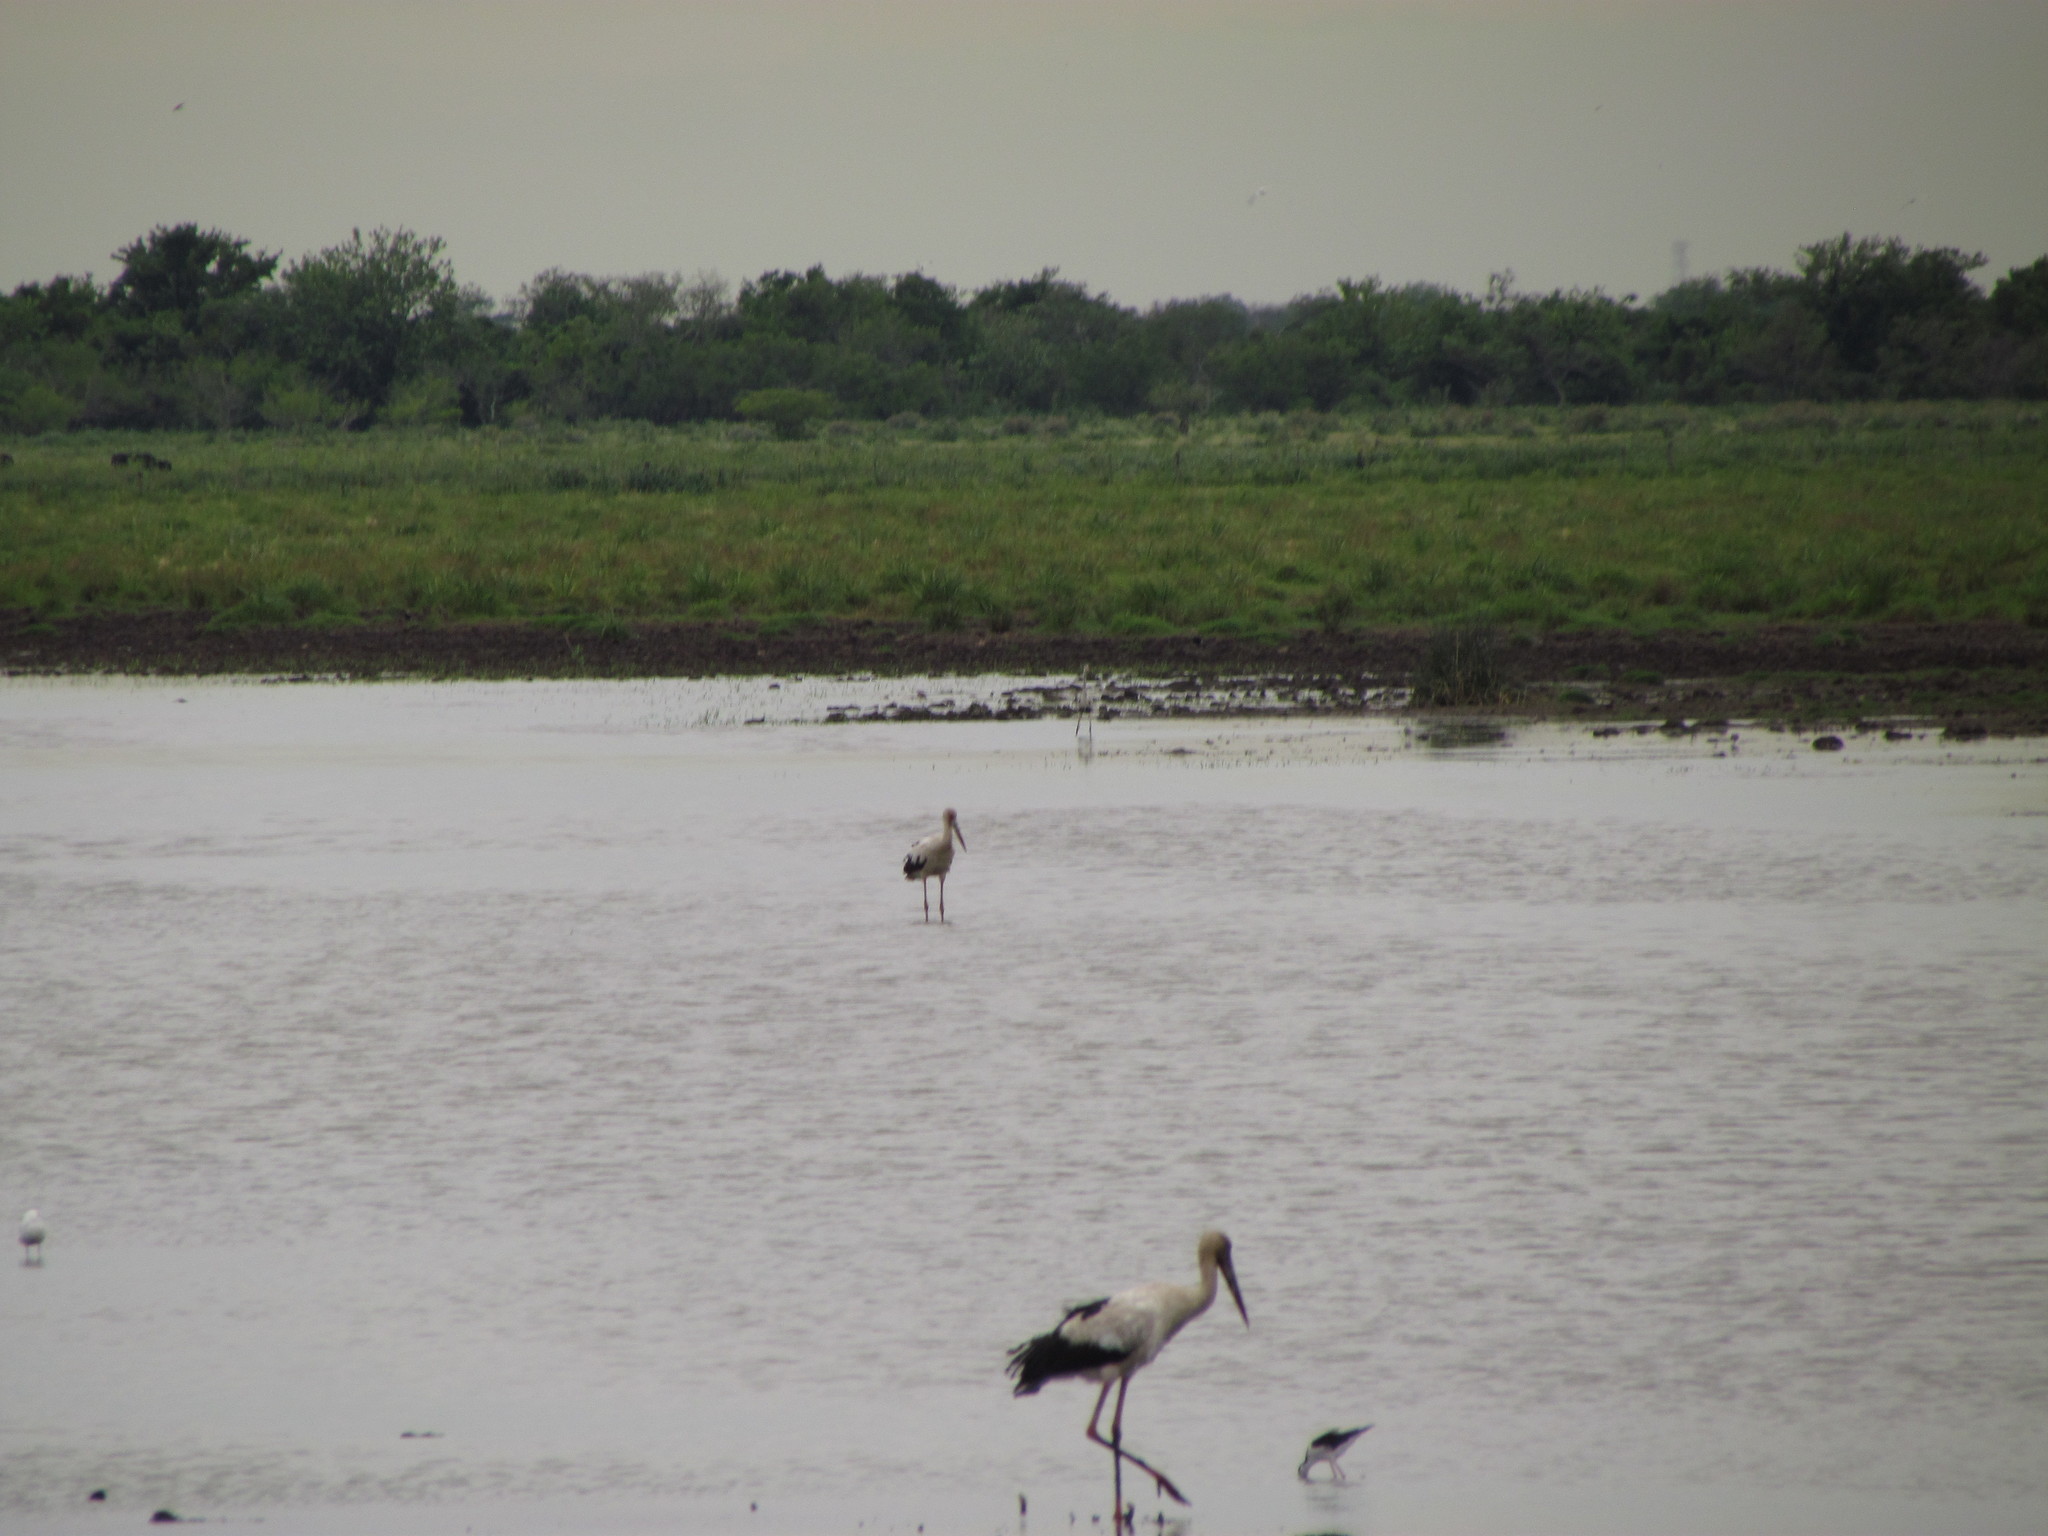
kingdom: Animalia
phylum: Chordata
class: Aves
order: Ciconiiformes
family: Ciconiidae
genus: Ciconia
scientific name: Ciconia maguari
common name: Maguari stork
